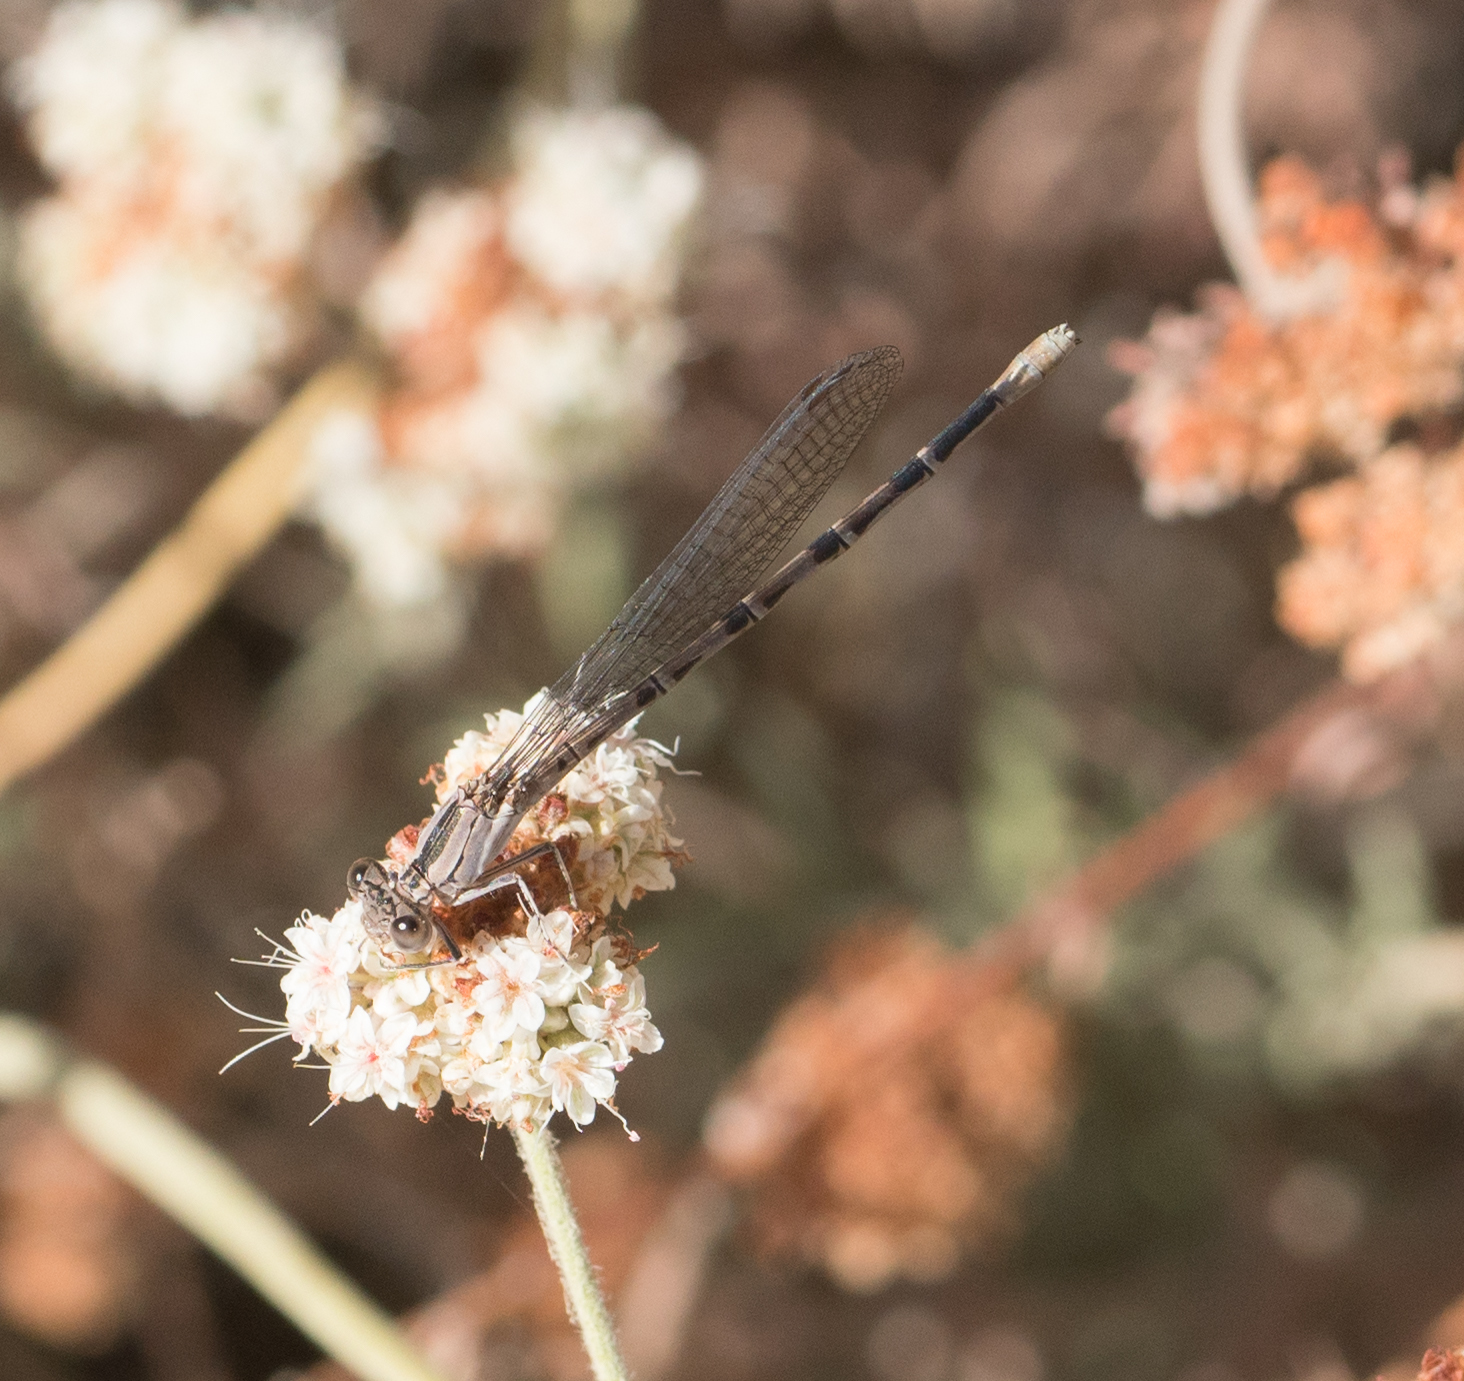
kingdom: Animalia
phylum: Arthropoda
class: Insecta
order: Odonata
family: Coenagrionidae
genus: Argia
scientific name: Argia vivida
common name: Vivid dancer
